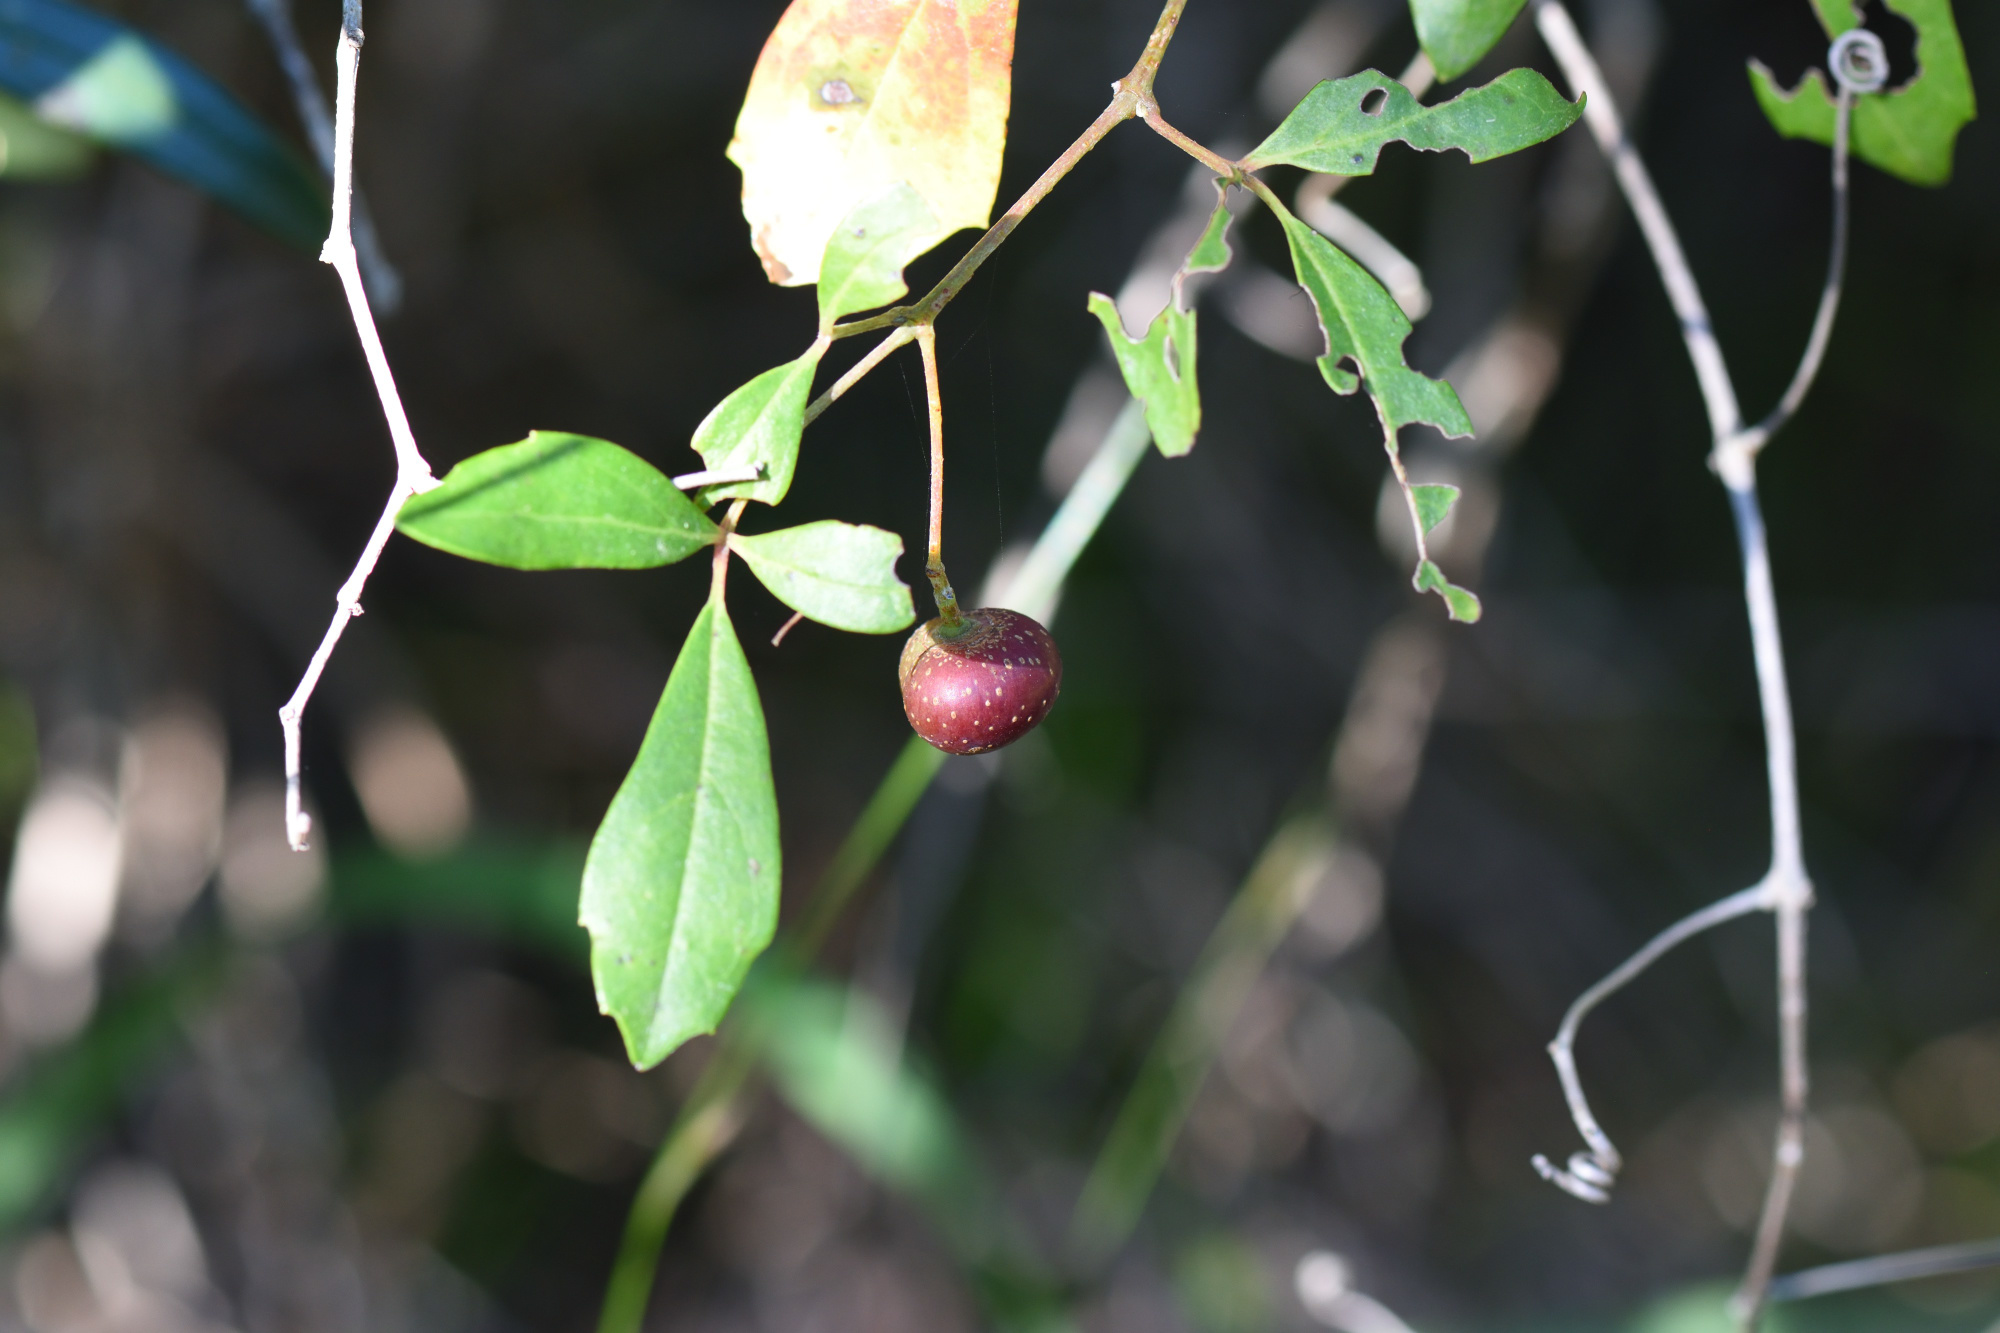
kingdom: Plantae
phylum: Tracheophyta
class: Magnoliopsida
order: Vitales
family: Vitaceae
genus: Rhoicissus
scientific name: Rhoicissus tridentata
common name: Common forest grape
